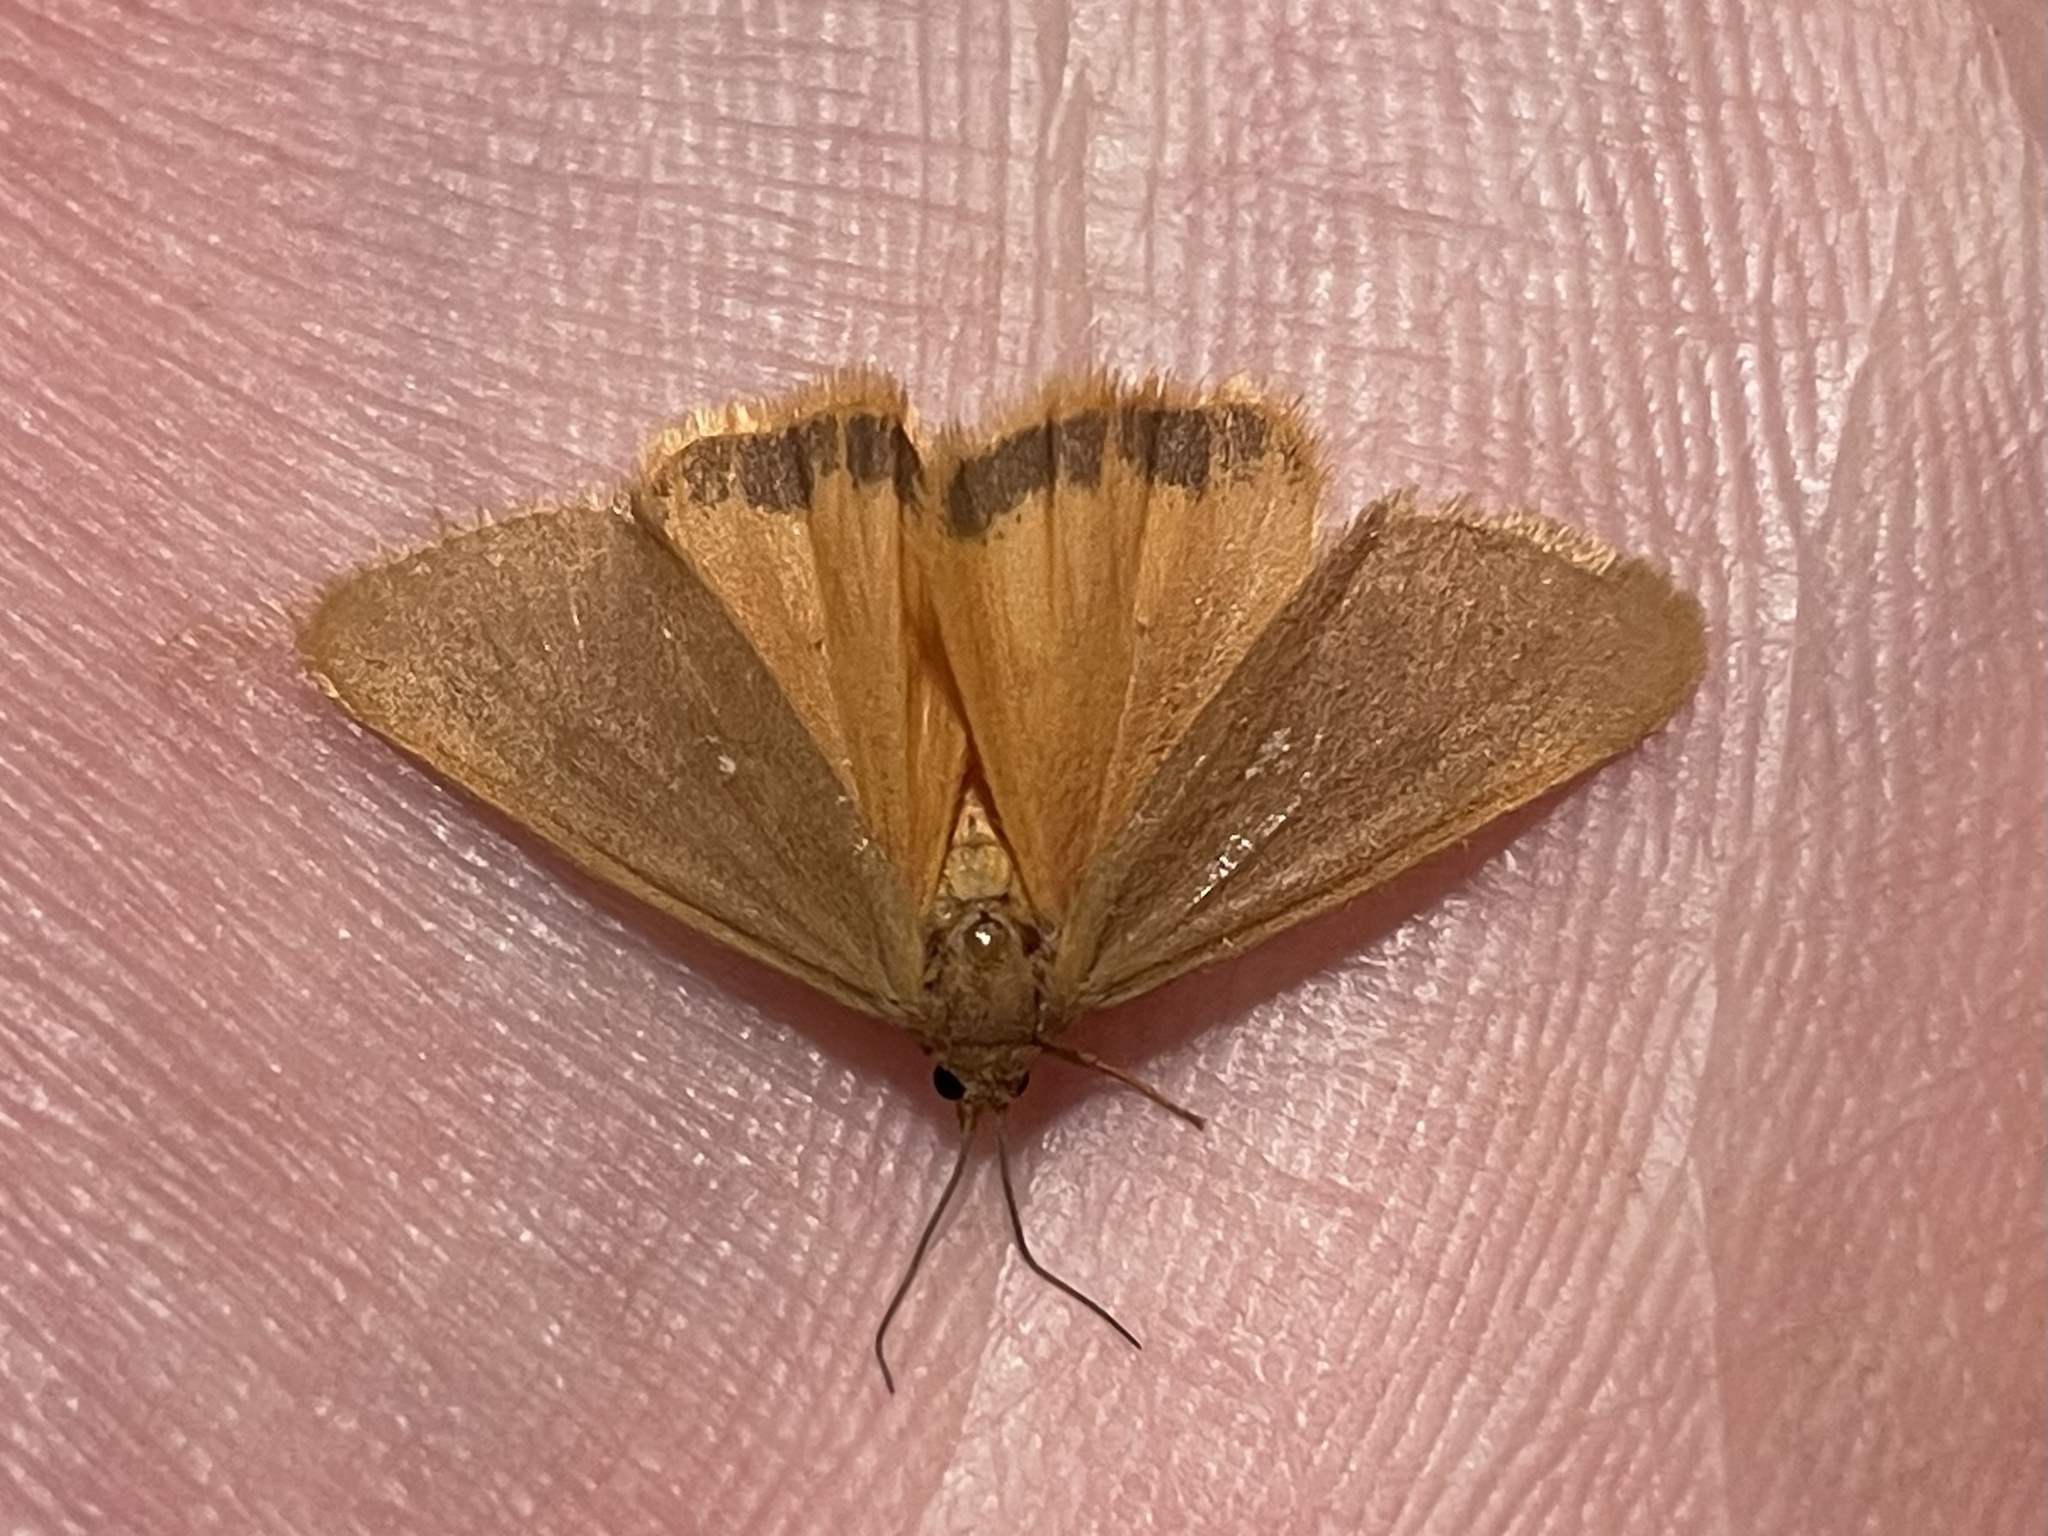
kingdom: Animalia
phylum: Arthropoda
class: Insecta
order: Lepidoptera
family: Erebidae
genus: Virbia
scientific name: Virbia aurantiaca
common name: Orange virbia moth
